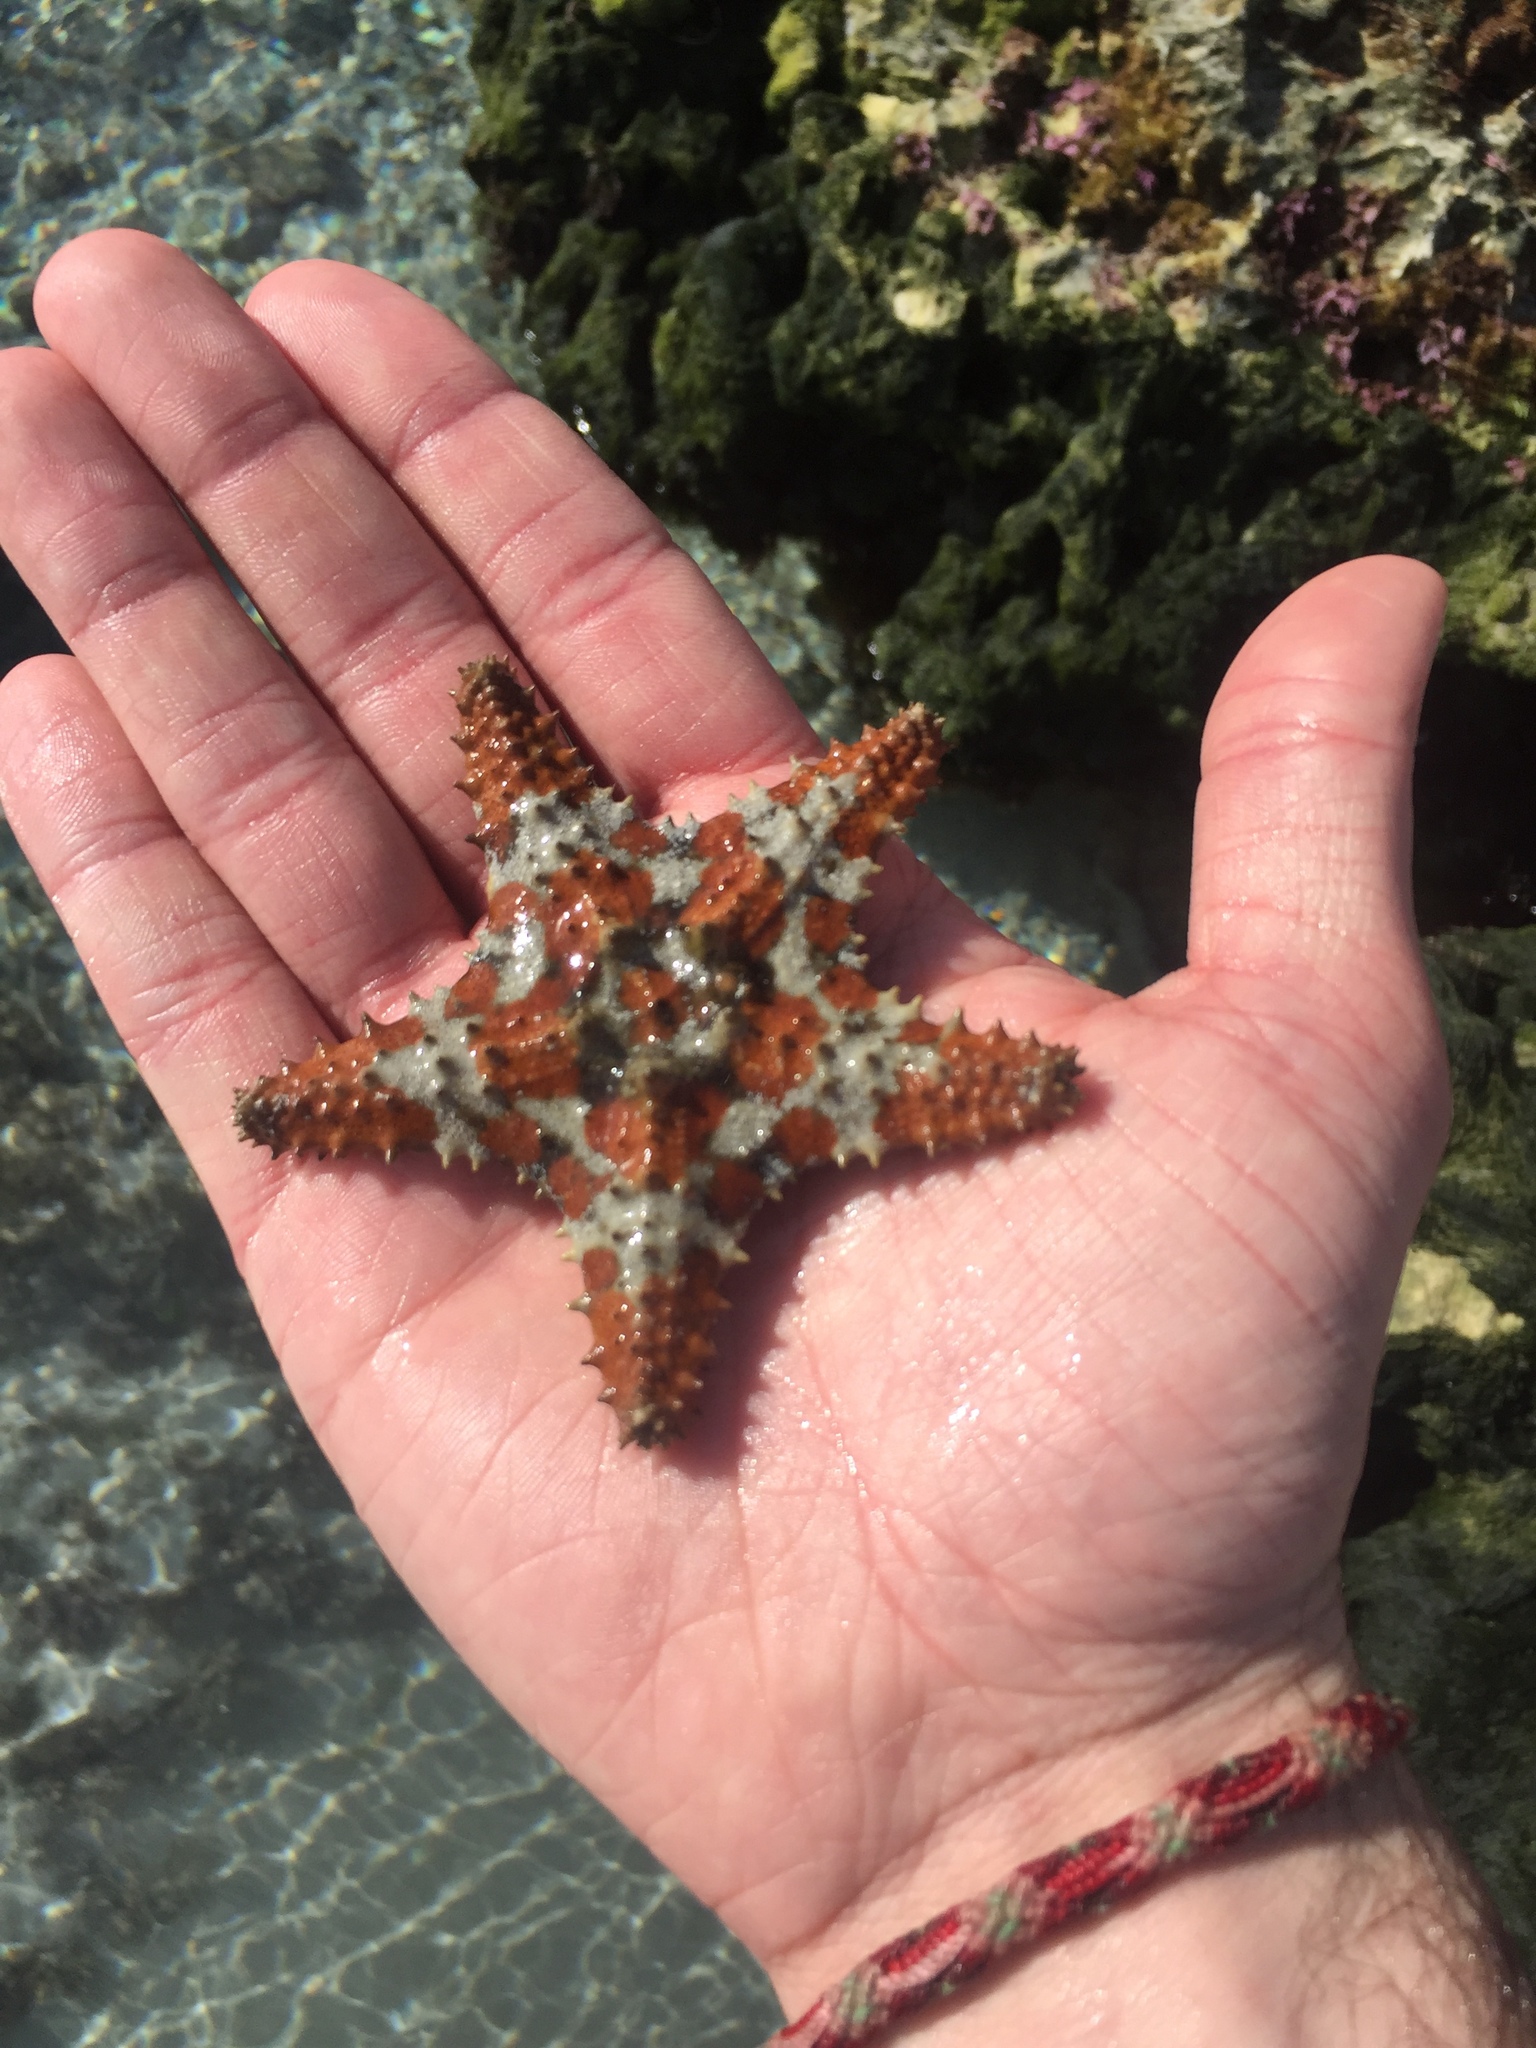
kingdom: Animalia
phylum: Echinodermata
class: Asteroidea
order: Valvatida
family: Oreasteridae
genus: Oreaster
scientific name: Oreaster reticulatus
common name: Cushion sea star
